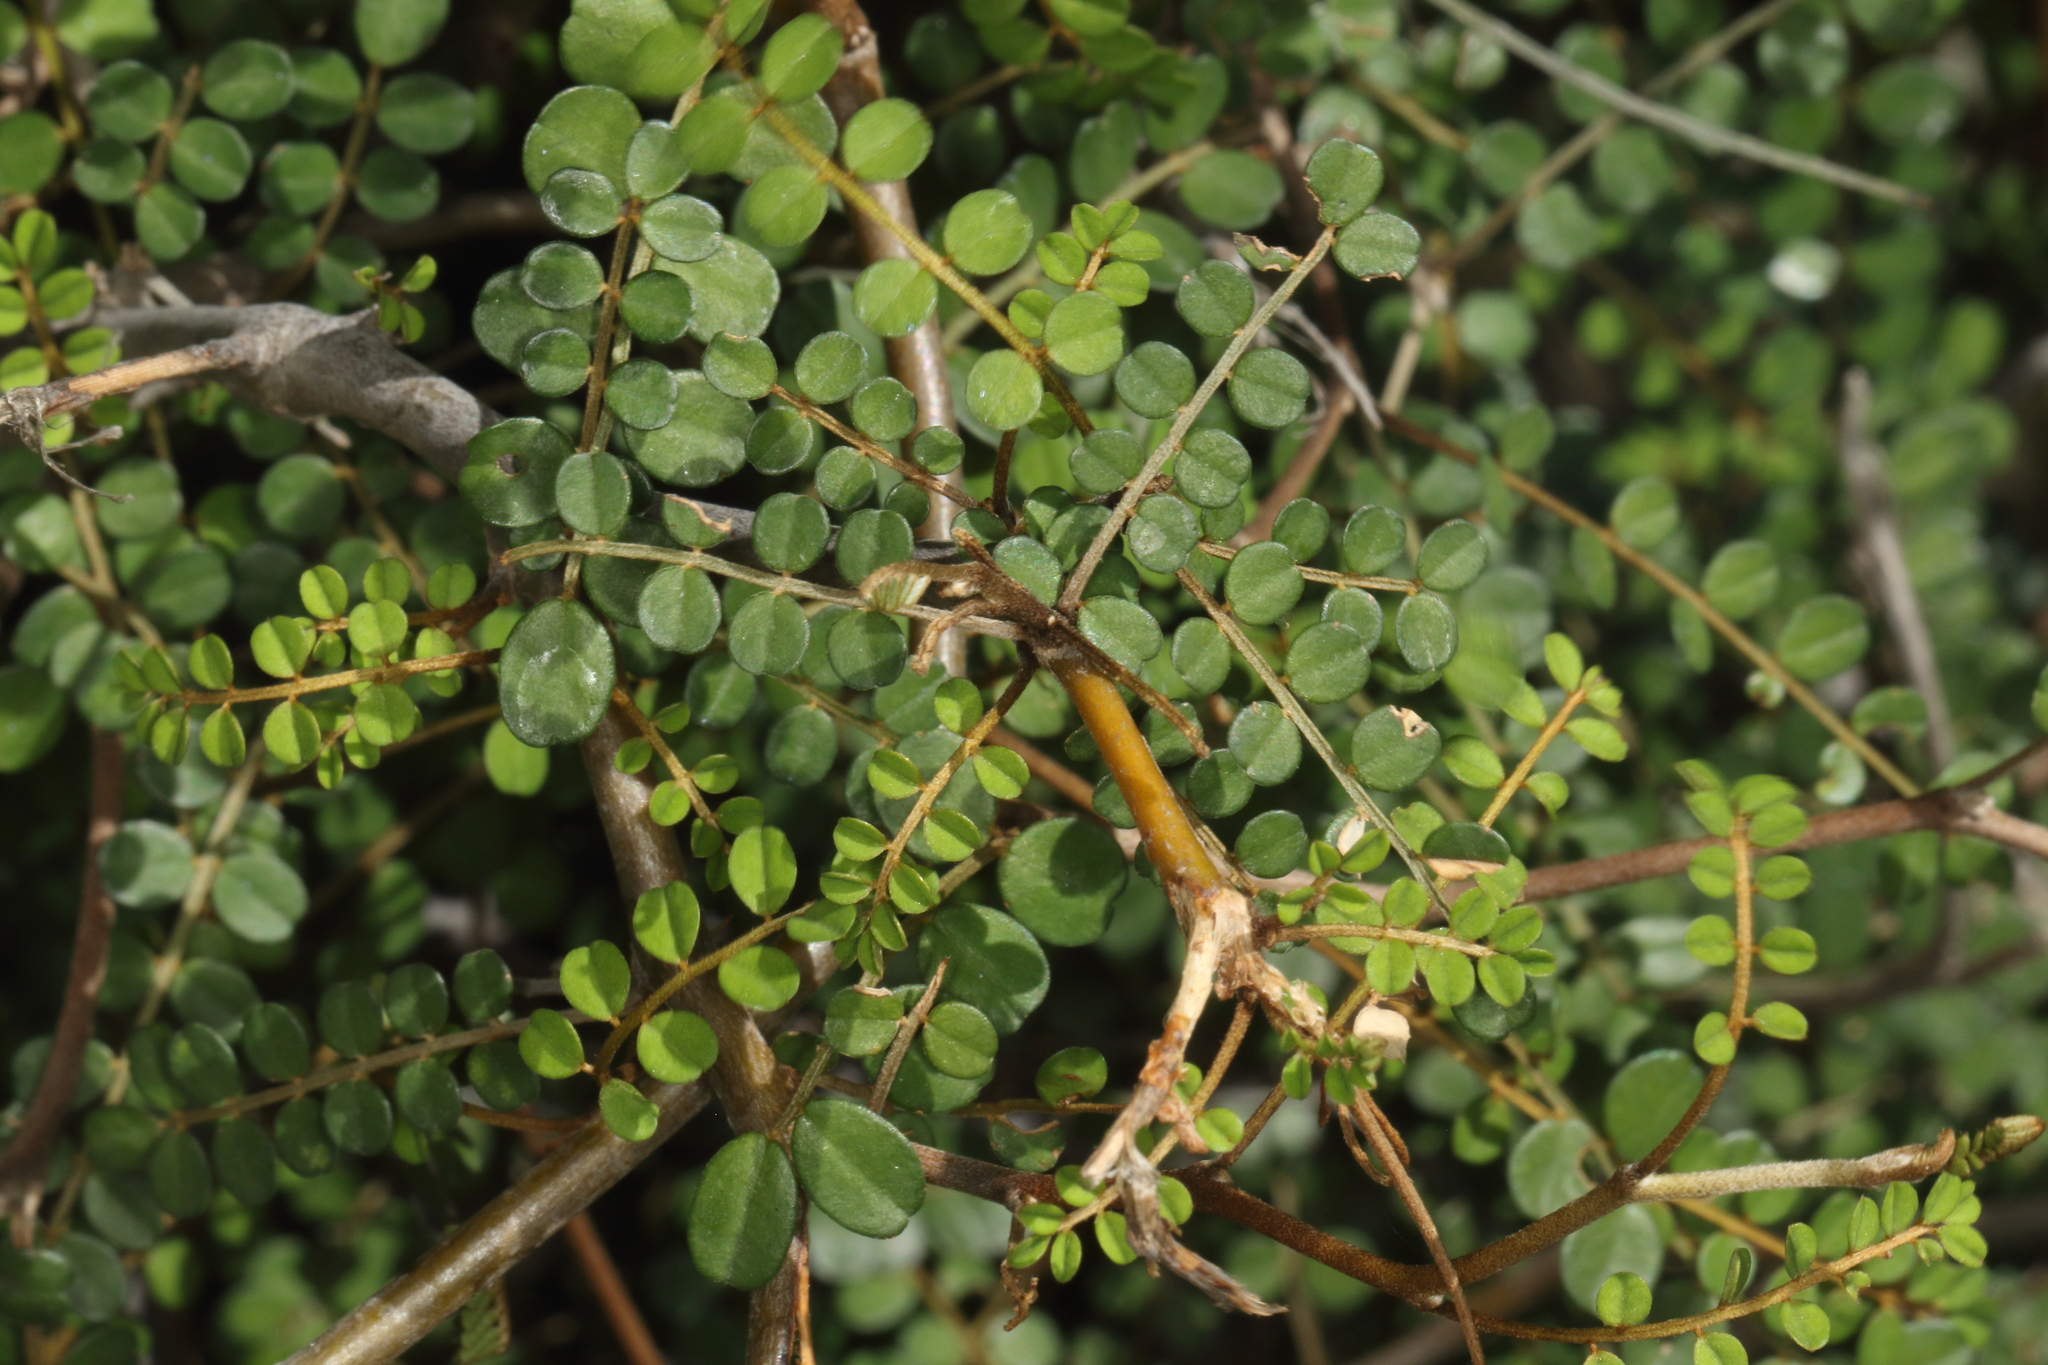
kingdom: Plantae
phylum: Tracheophyta
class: Magnoliopsida
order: Fabales
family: Fabaceae
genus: Sophora
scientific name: Sophora microphylla
